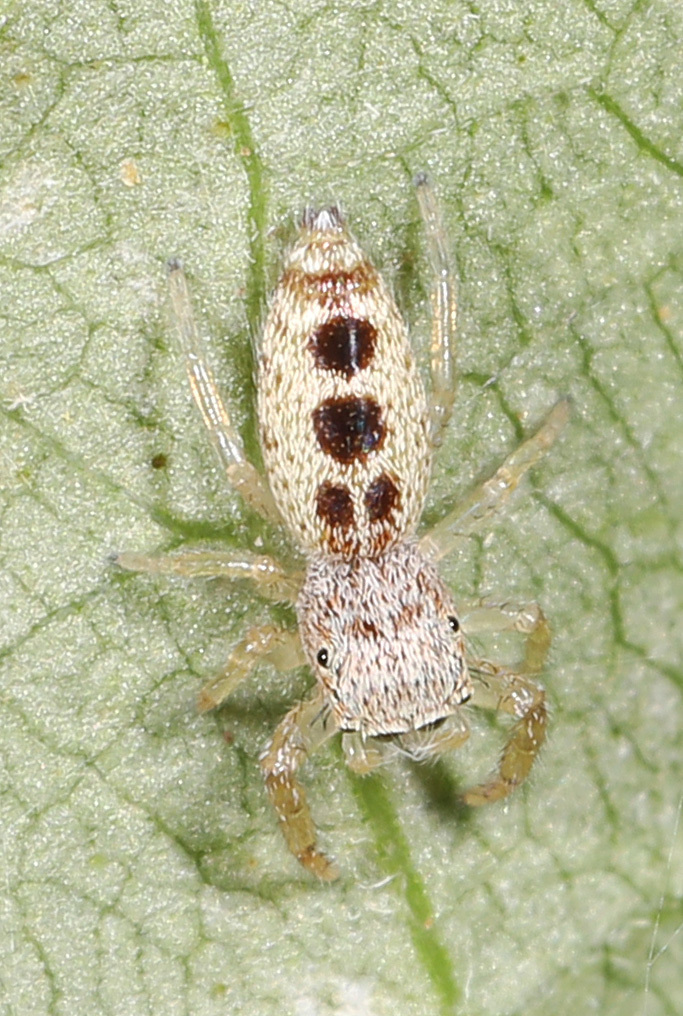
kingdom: Animalia
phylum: Arthropoda
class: Arachnida
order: Araneae
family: Salticidae
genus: Hentzia
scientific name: Hentzia mitrata
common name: White-jawed jumping spider
